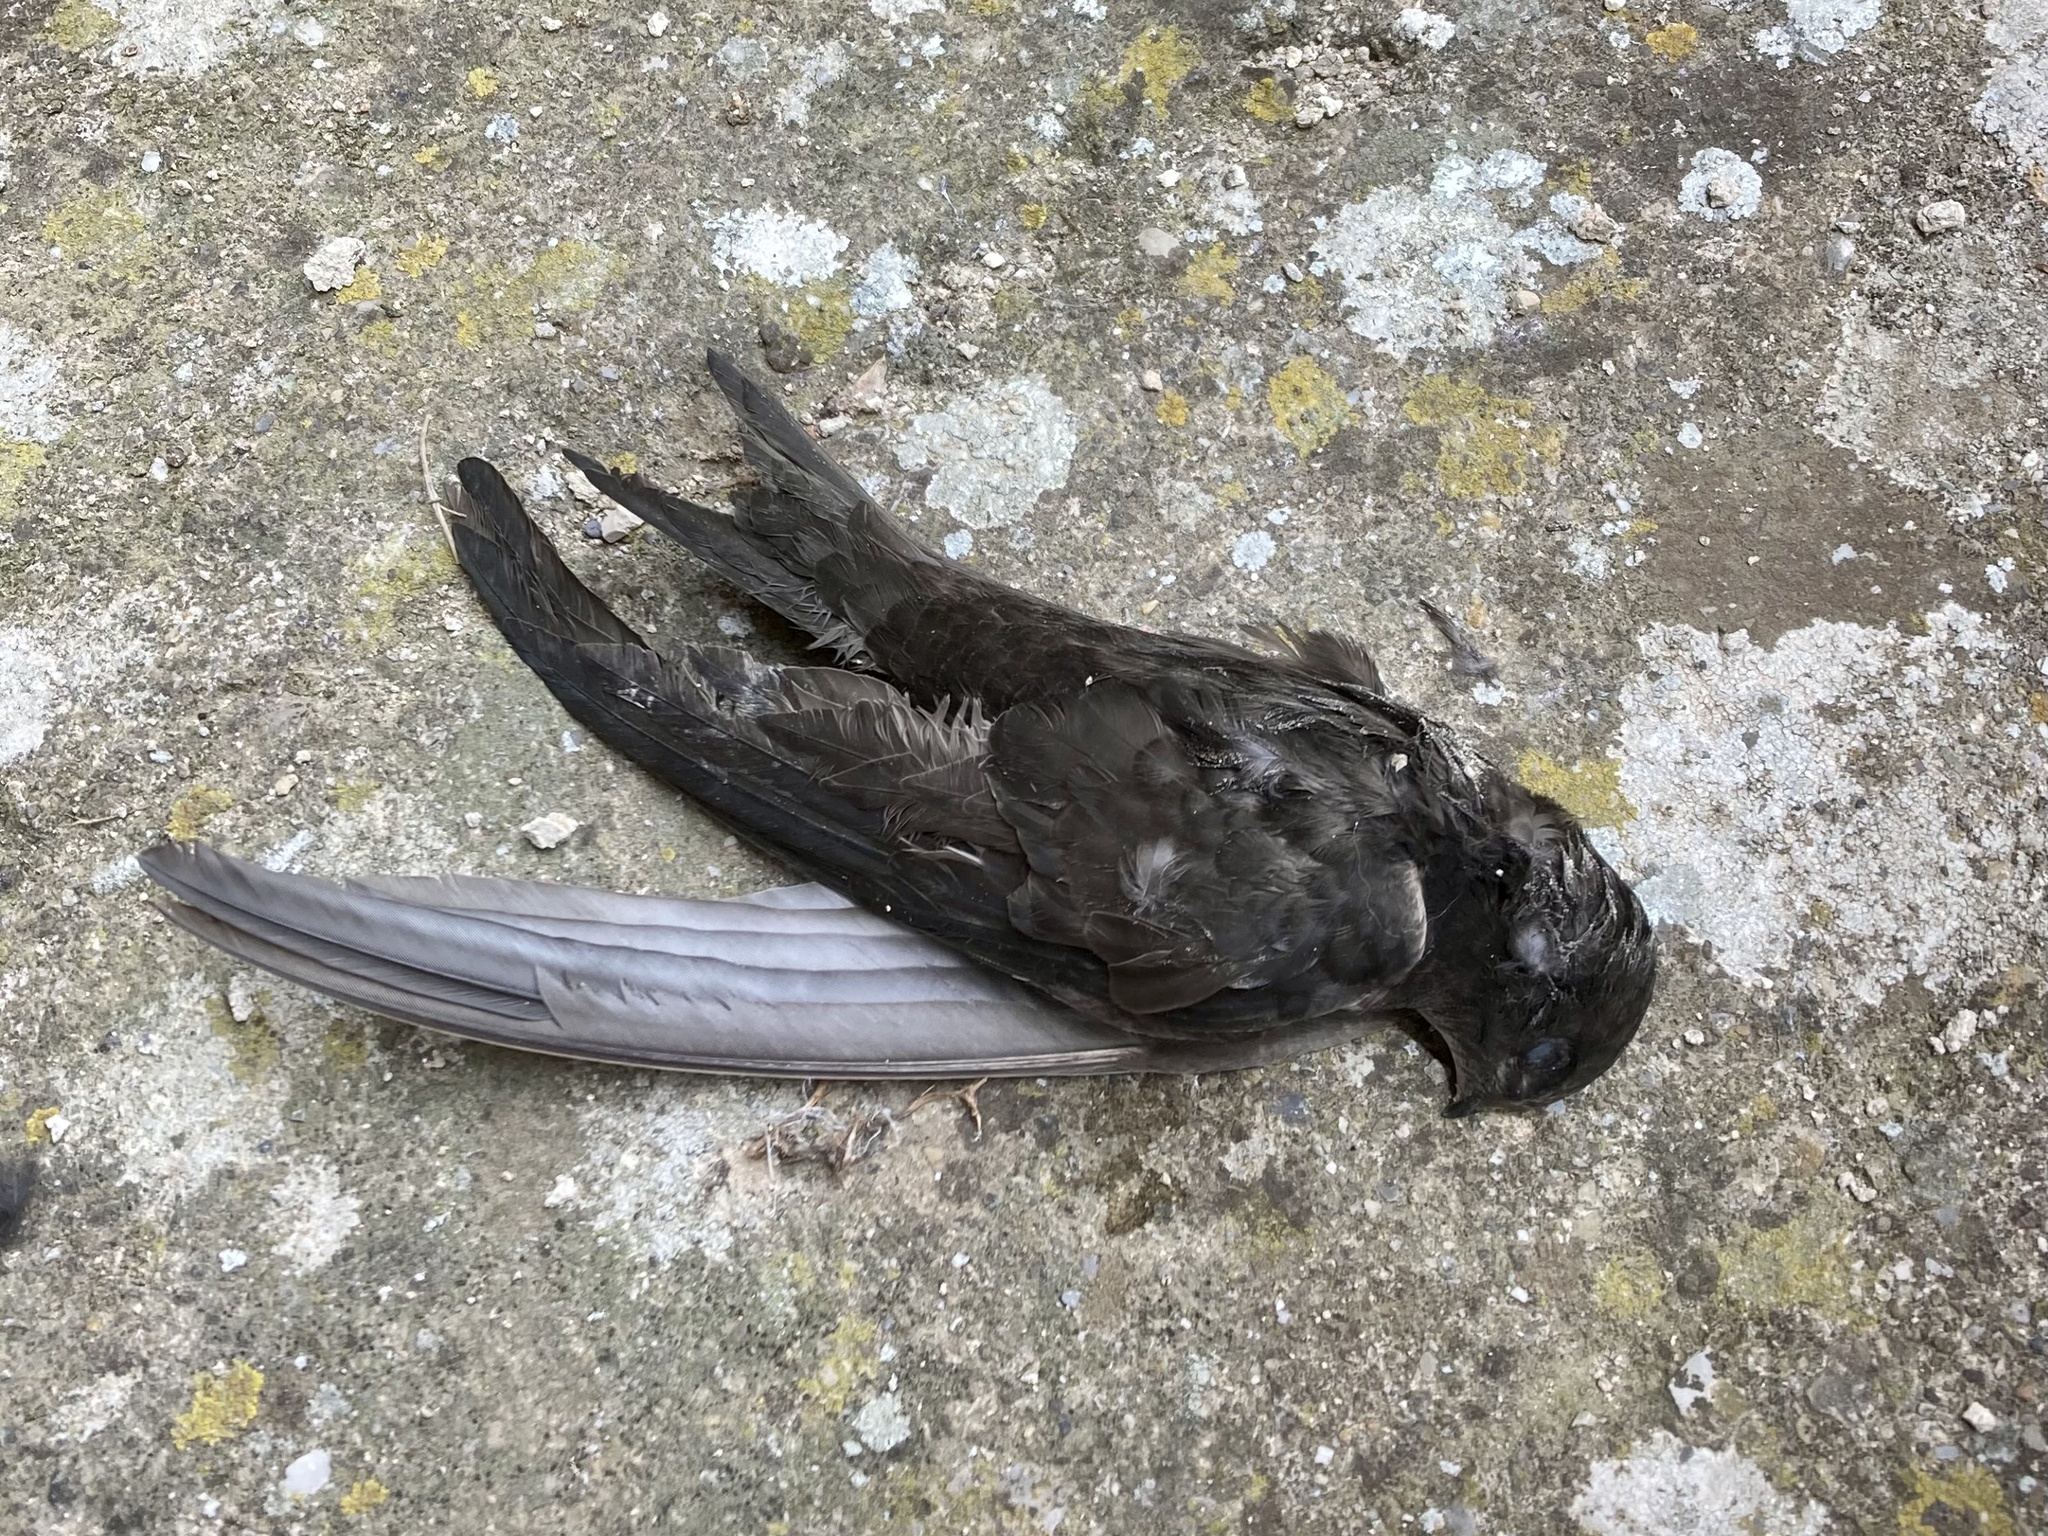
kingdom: Animalia
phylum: Chordata
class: Aves
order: Apodiformes
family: Apodidae
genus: Apus
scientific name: Apus apus
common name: Common swift
